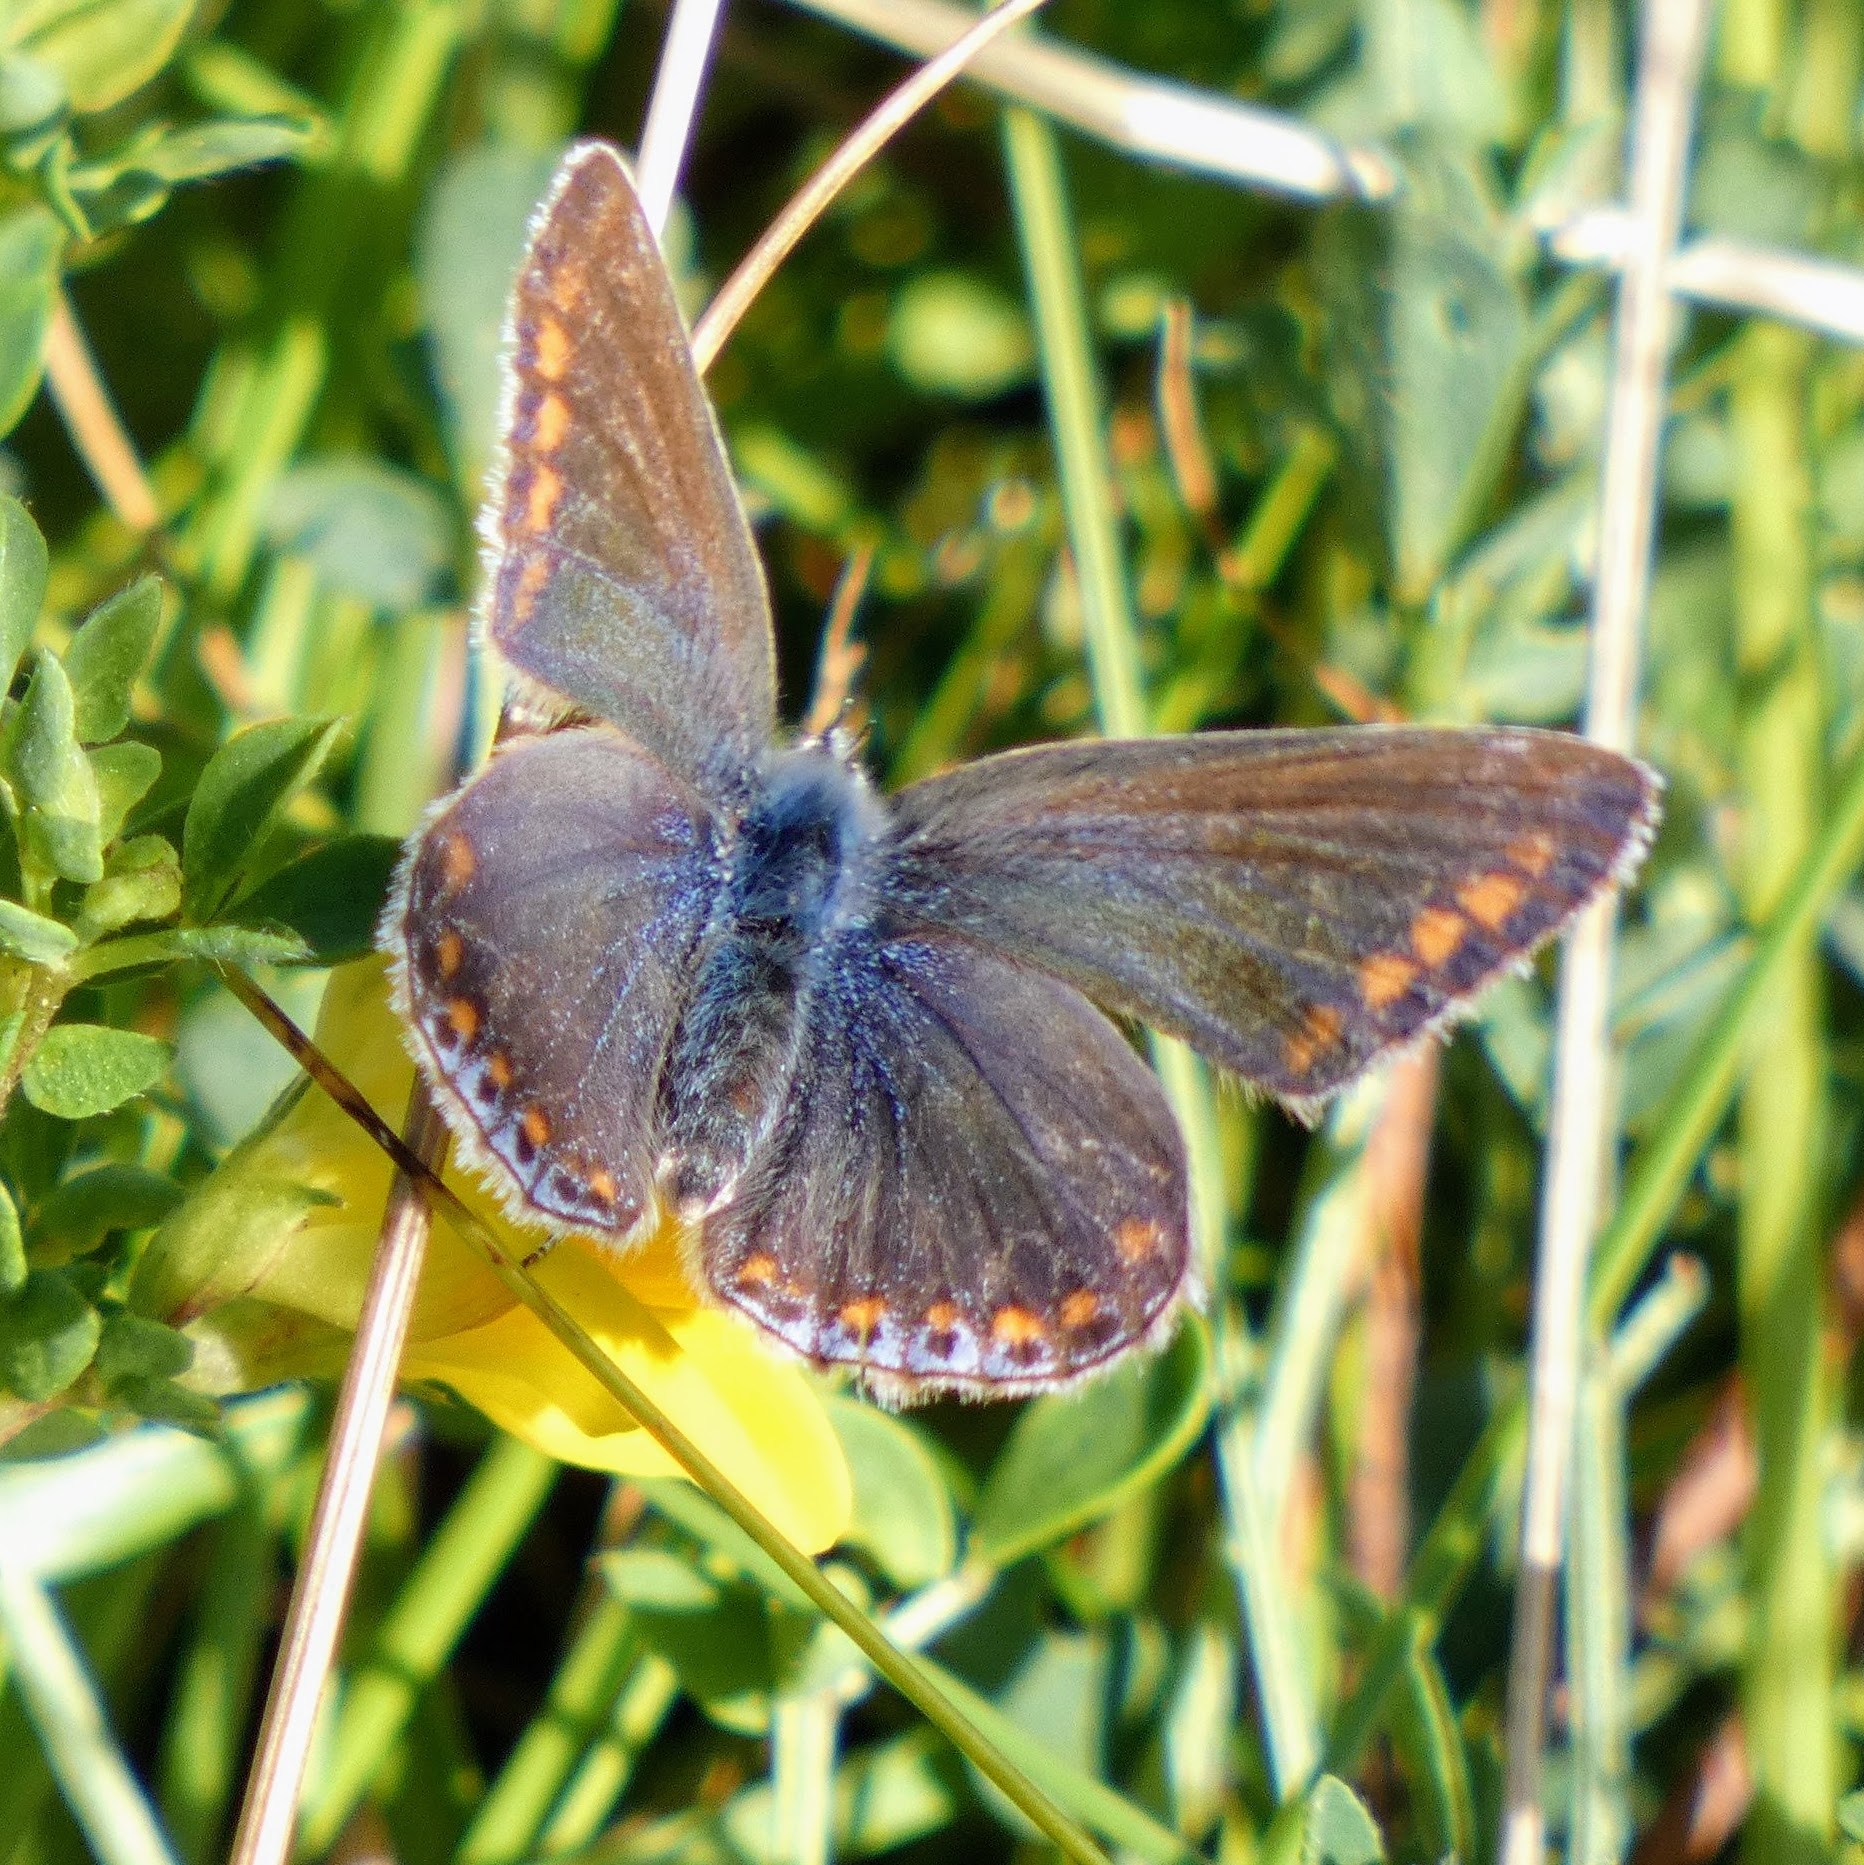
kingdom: Animalia
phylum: Arthropoda
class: Insecta
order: Lepidoptera
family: Lycaenidae
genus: Polyommatus
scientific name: Polyommatus icarus
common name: Common blue
